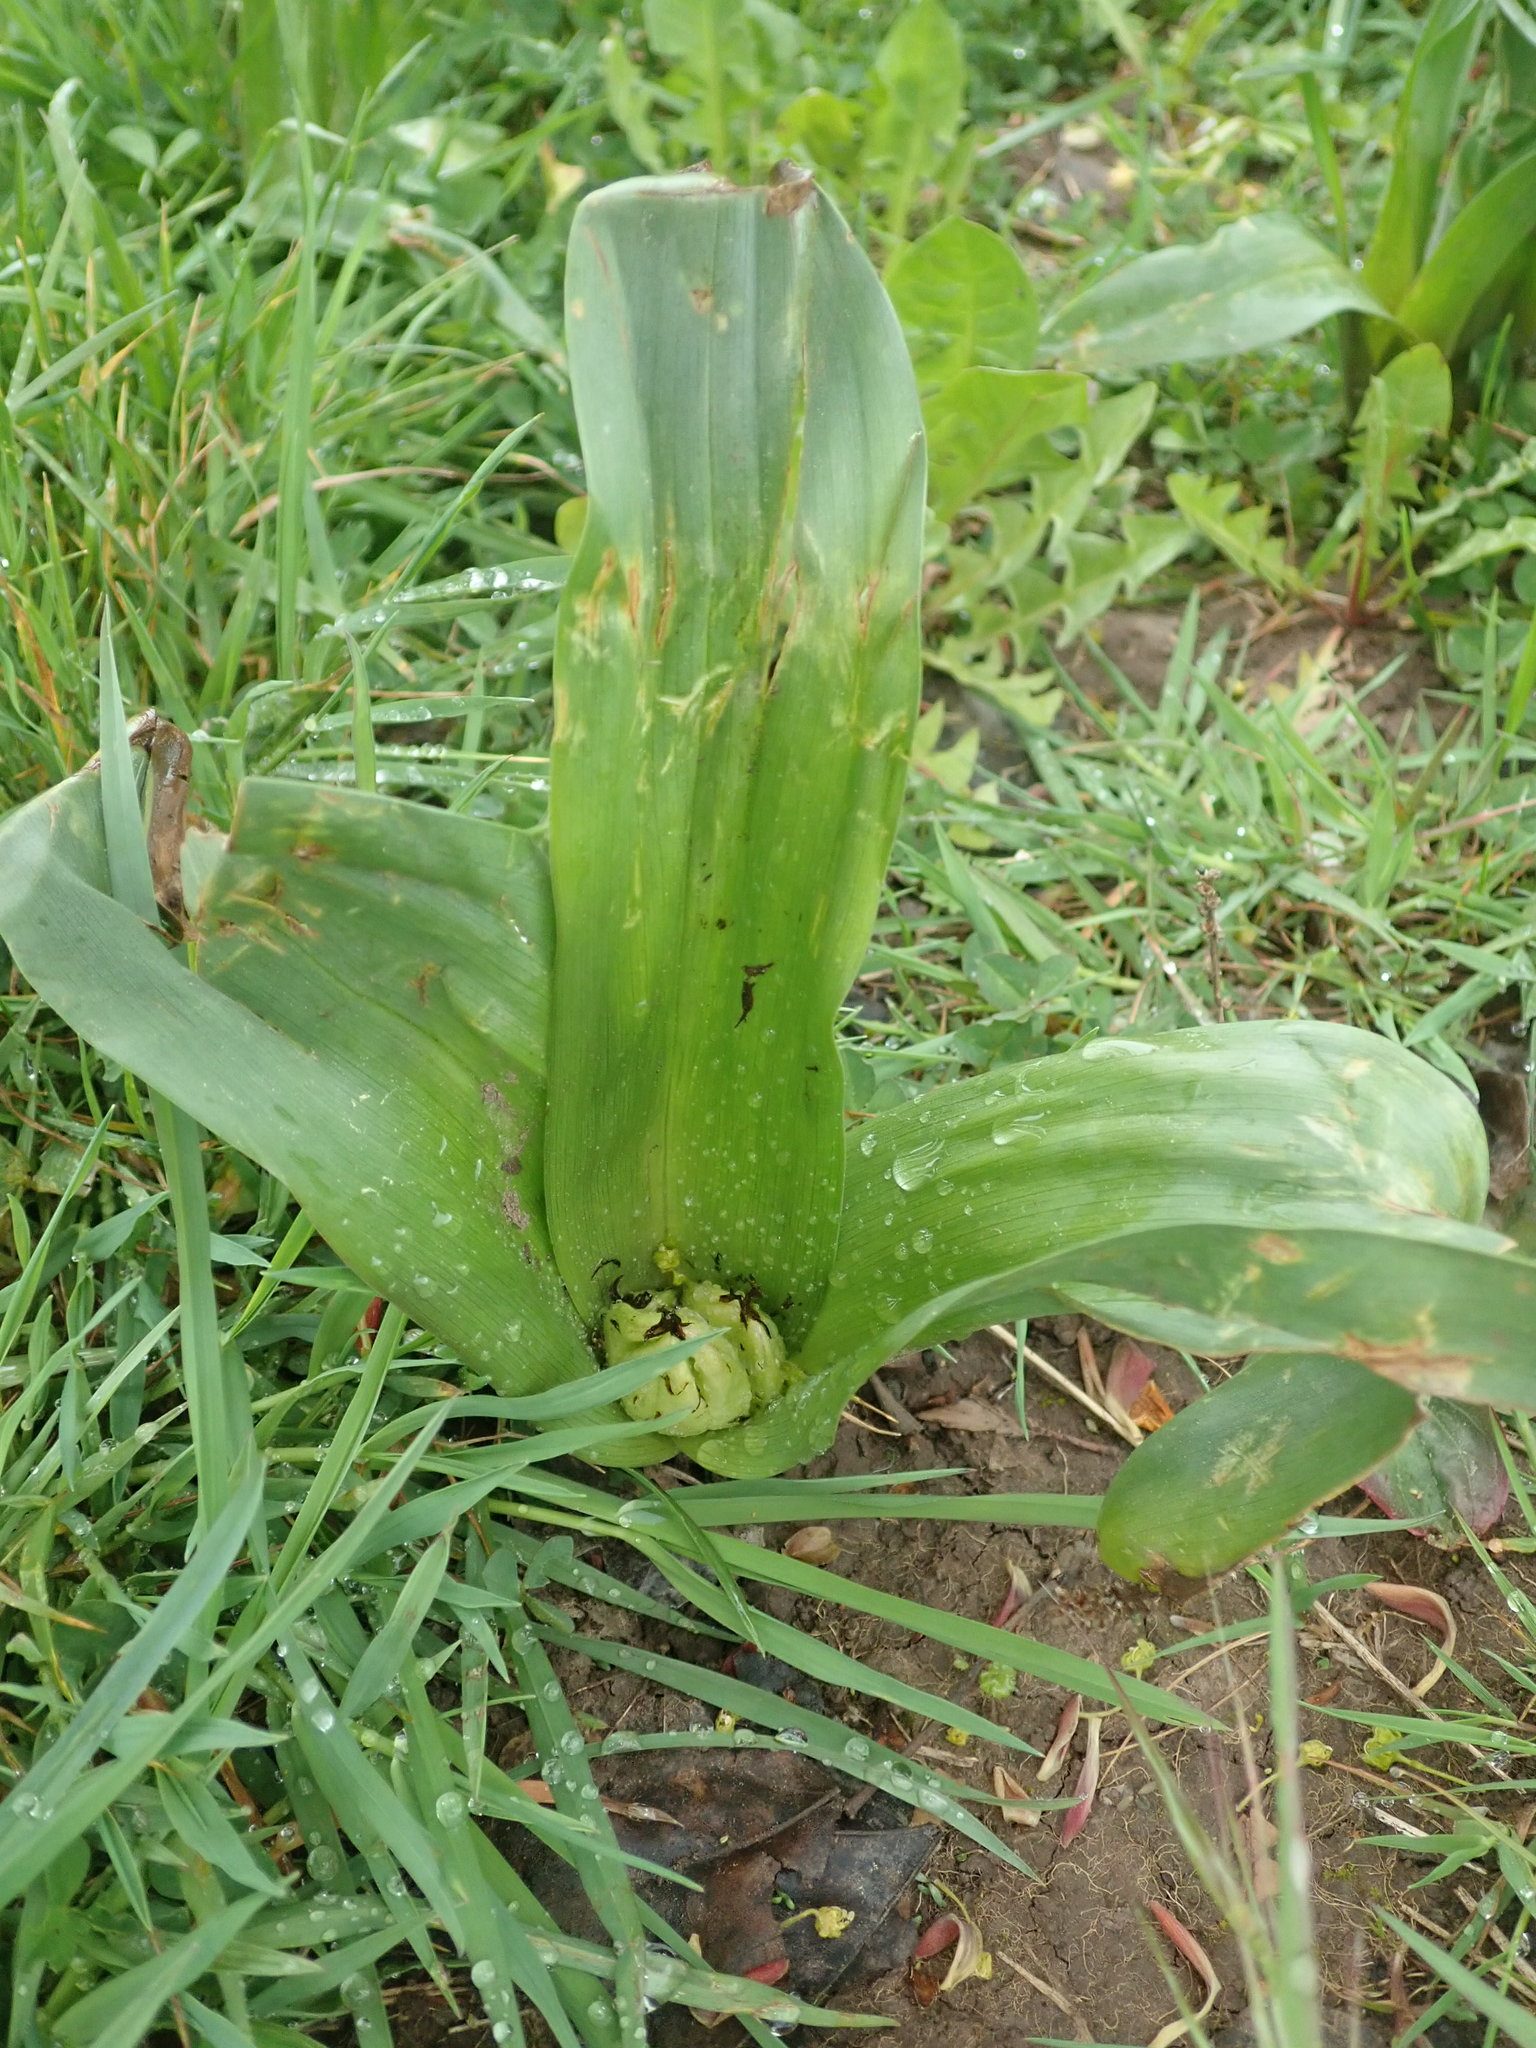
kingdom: Plantae
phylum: Tracheophyta
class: Liliopsida
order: Liliales
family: Colchicaceae
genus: Colchicum
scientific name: Colchicum autumnale
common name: Autumn crocus
